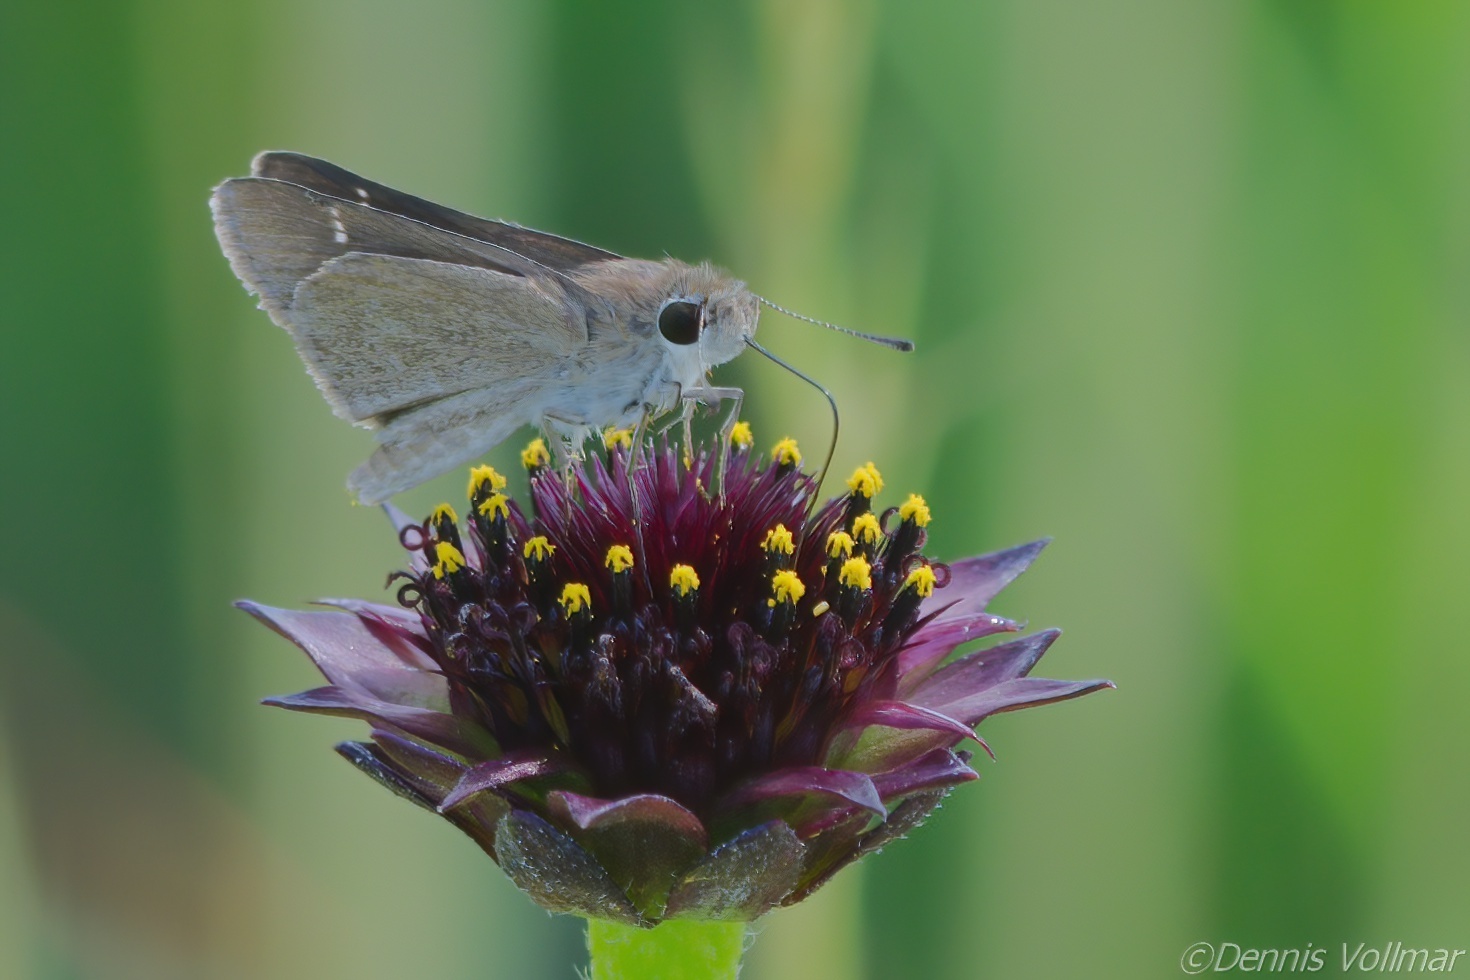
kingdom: Animalia
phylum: Arthropoda
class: Insecta
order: Lepidoptera
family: Hesperiidae
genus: Lerodea
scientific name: Lerodea eufala
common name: Eufala skipper
